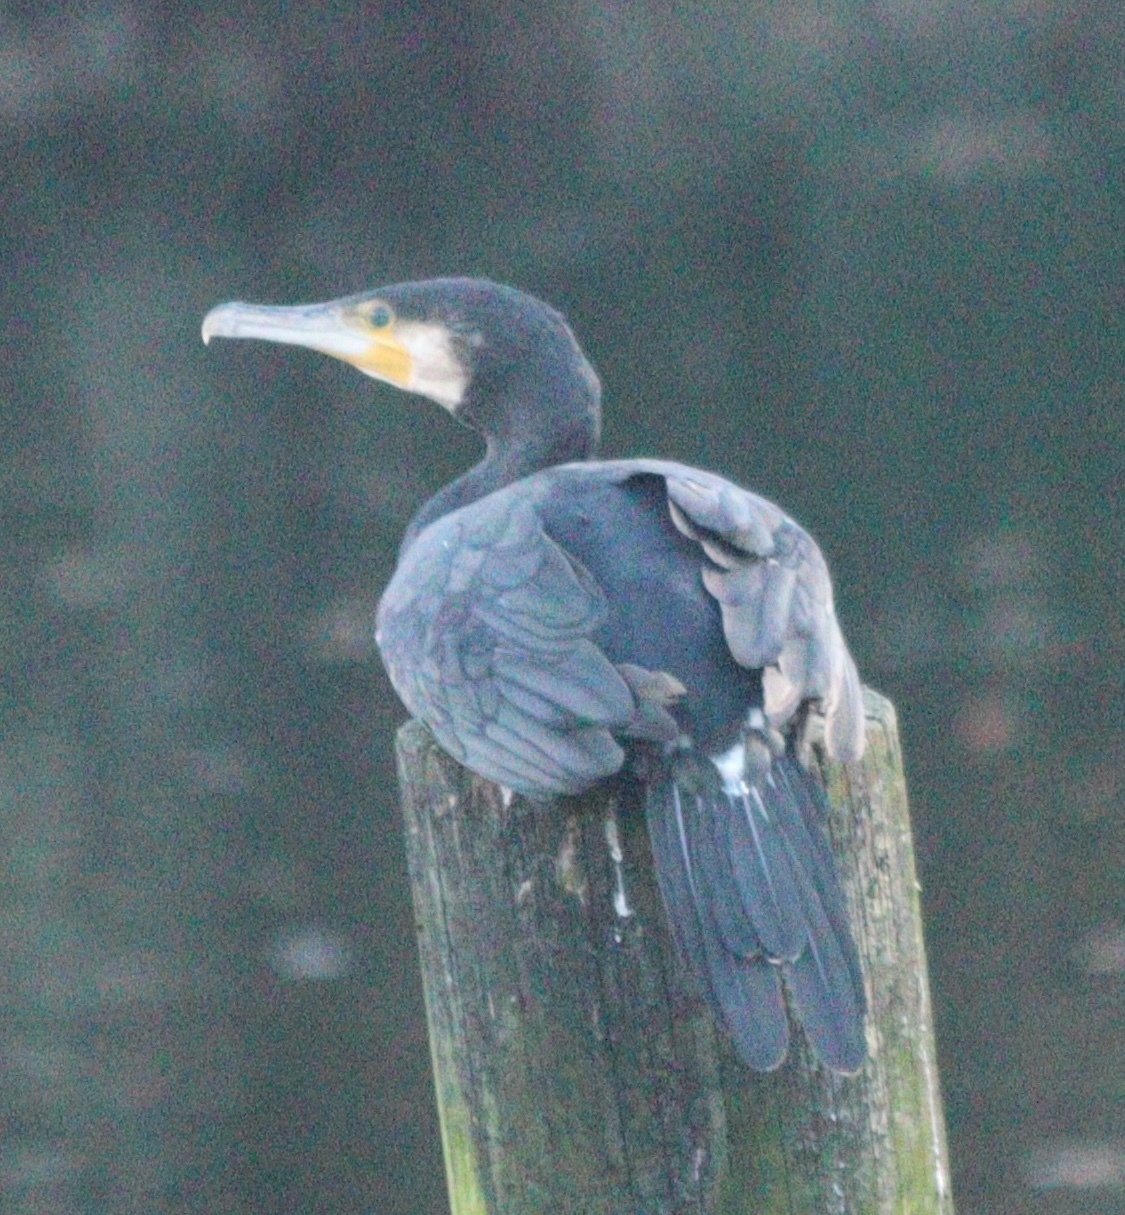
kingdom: Animalia
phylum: Chordata
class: Aves
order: Suliformes
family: Phalacrocoracidae
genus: Phalacrocorax
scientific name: Phalacrocorax carbo
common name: Great cormorant
